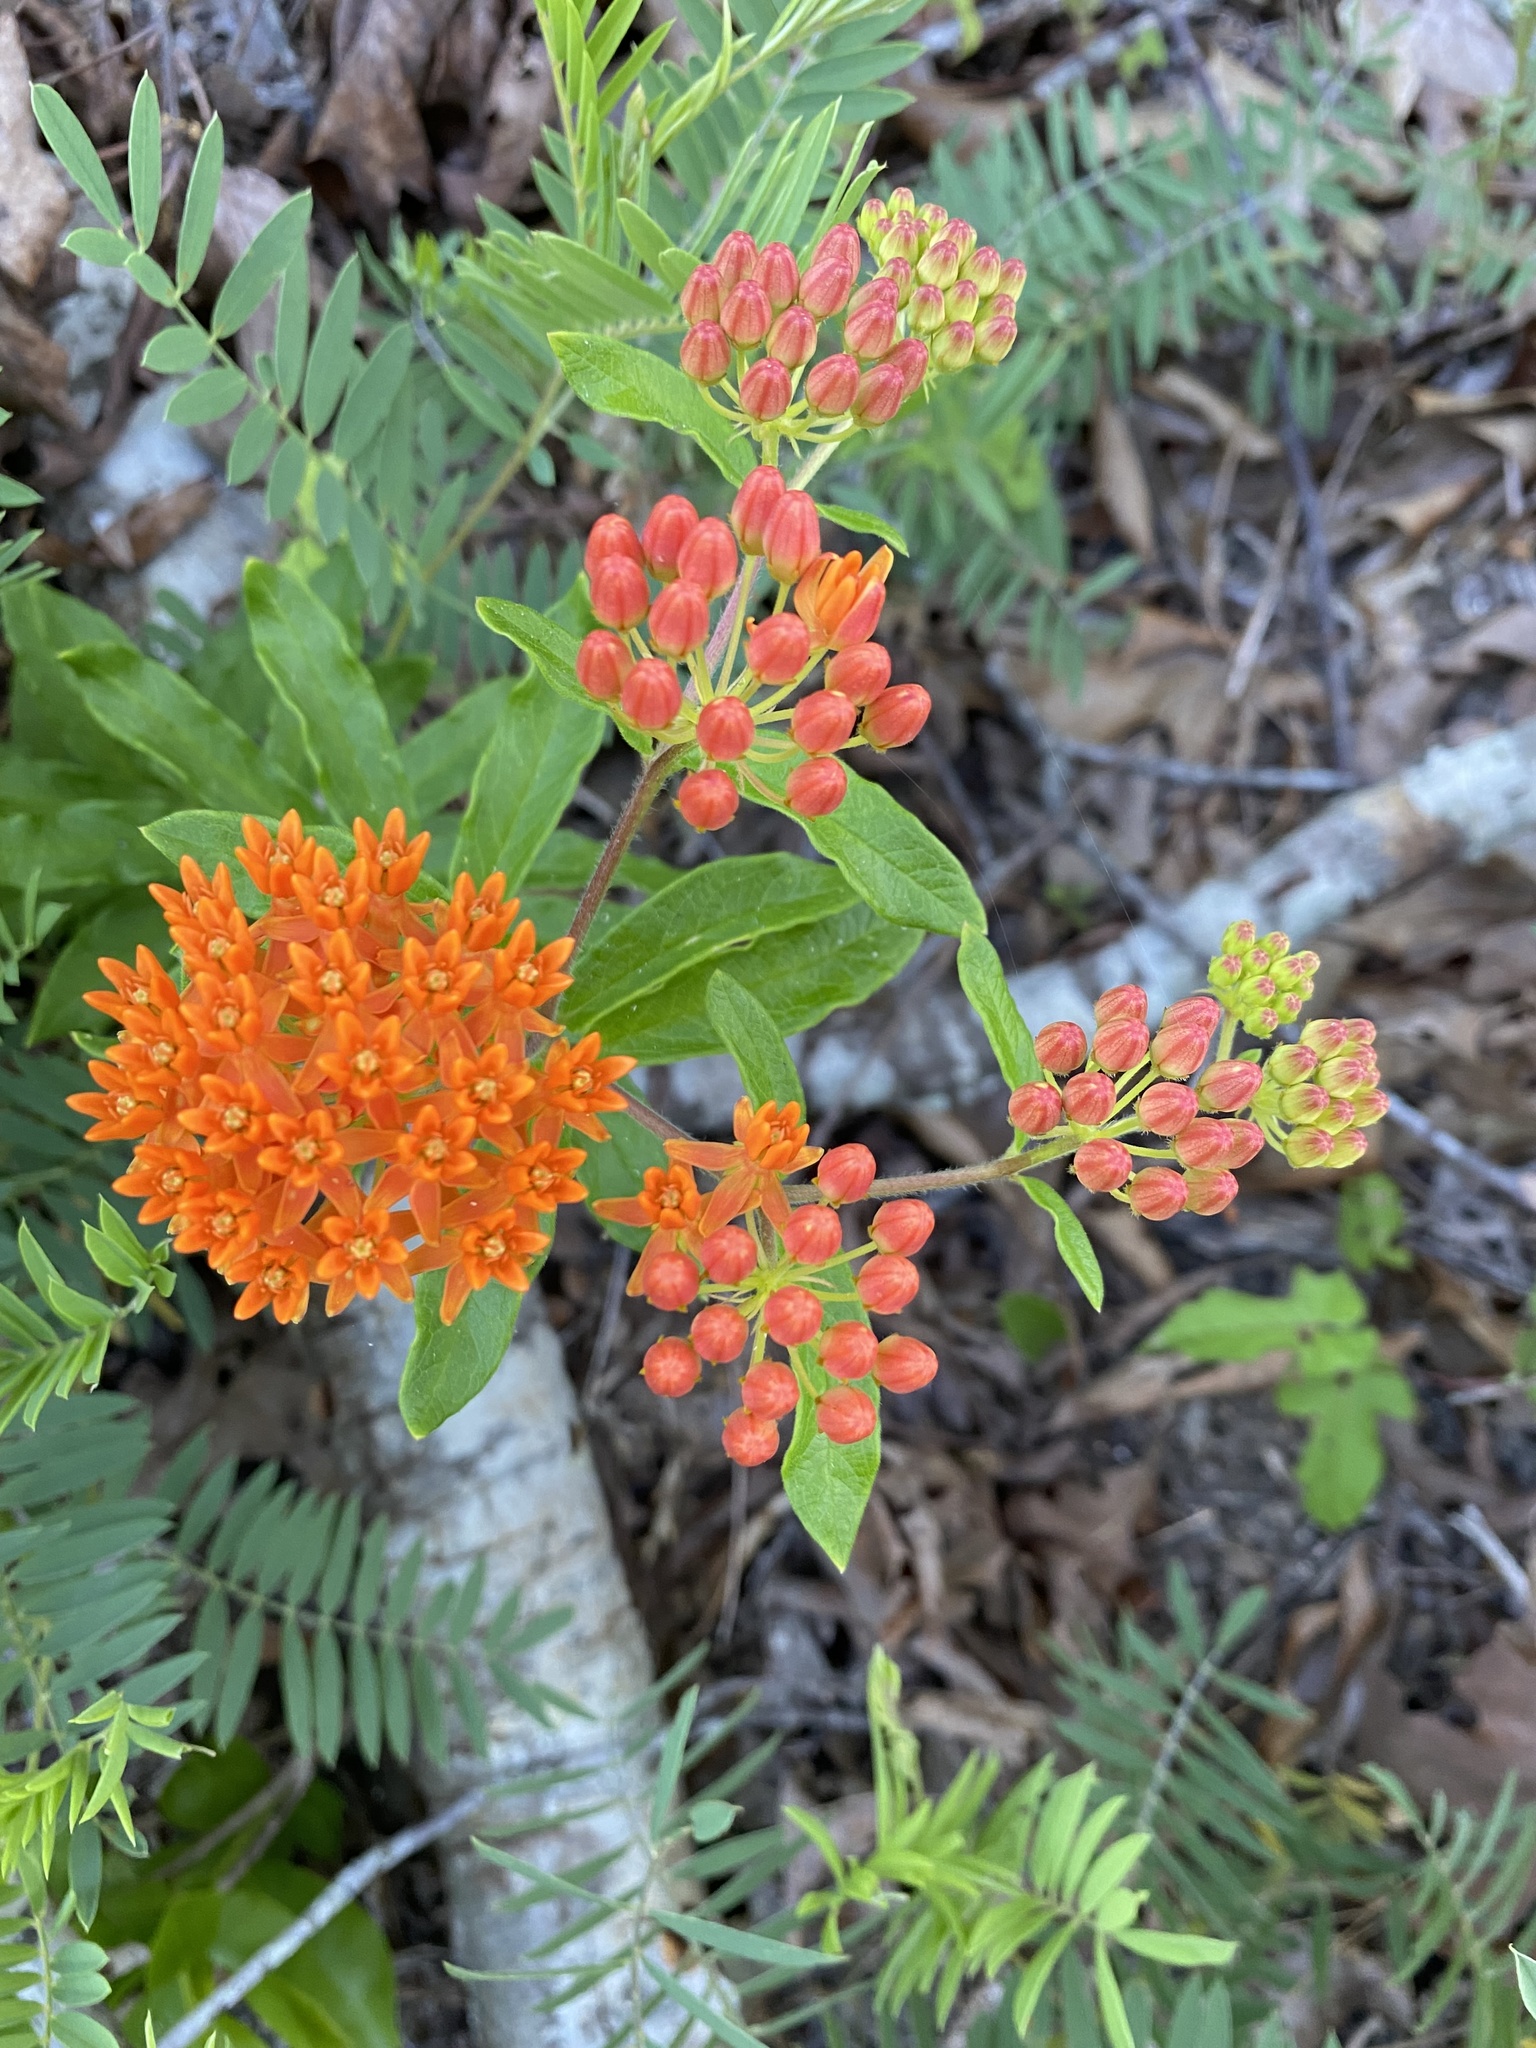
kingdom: Plantae
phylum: Tracheophyta
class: Magnoliopsida
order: Gentianales
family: Apocynaceae
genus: Asclepias
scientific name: Asclepias tuberosa
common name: Butterfly milkweed
